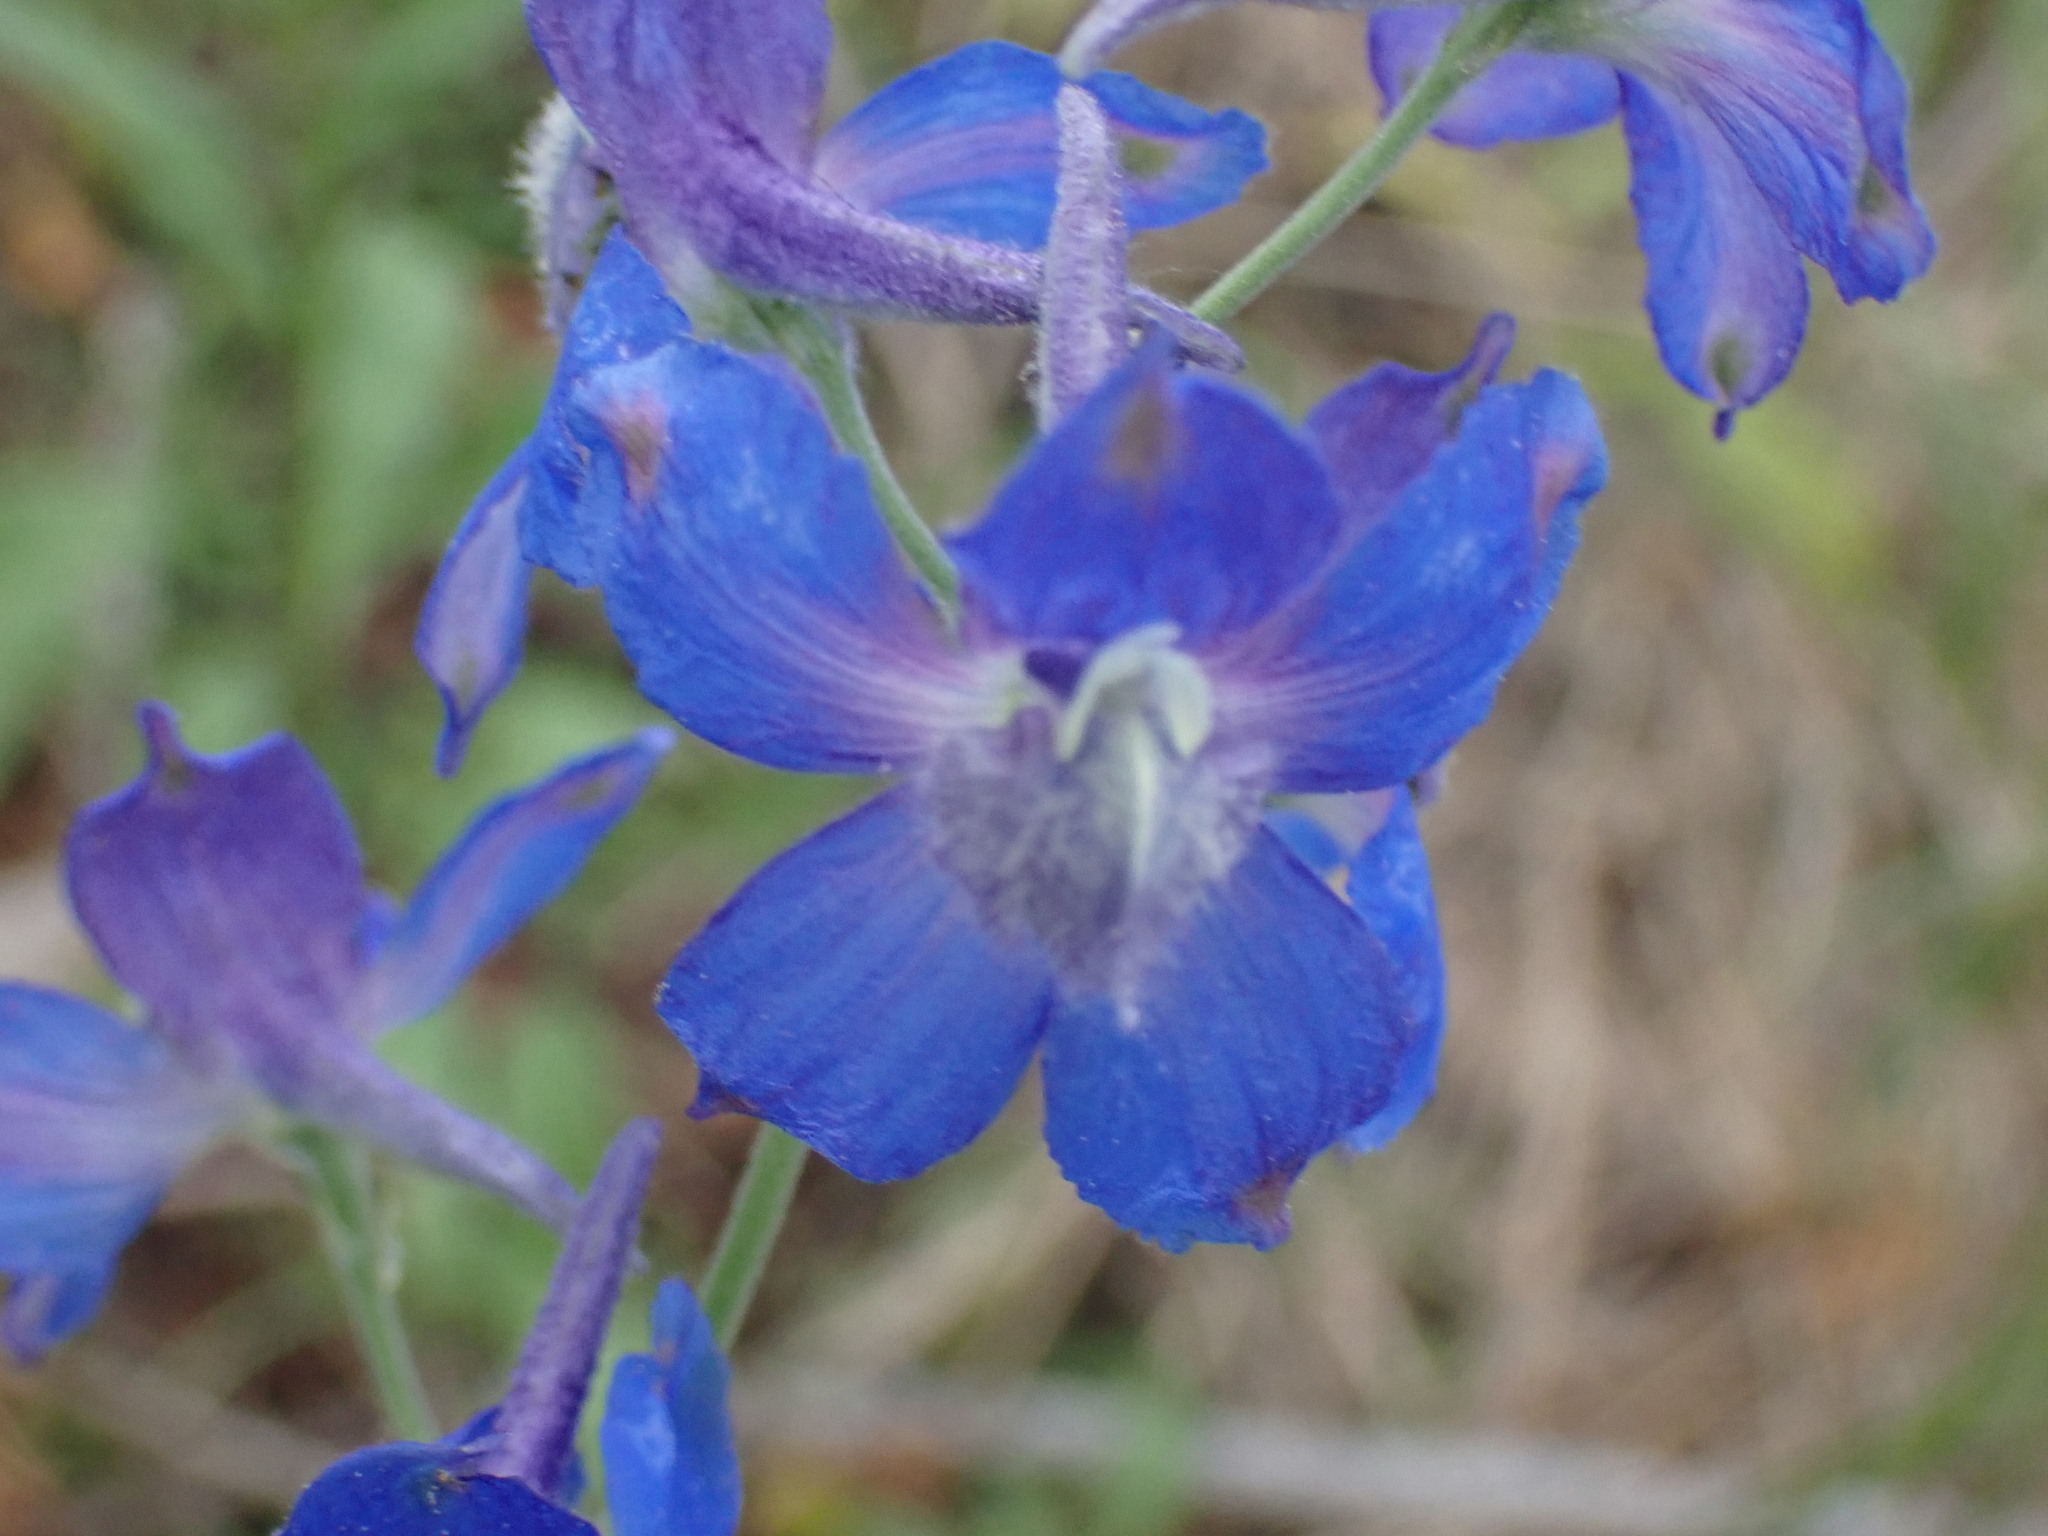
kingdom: Plantae
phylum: Tracheophyta
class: Magnoliopsida
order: Ranunculales
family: Ranunculaceae
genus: Delphinium
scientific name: Delphinium nuttallianum
